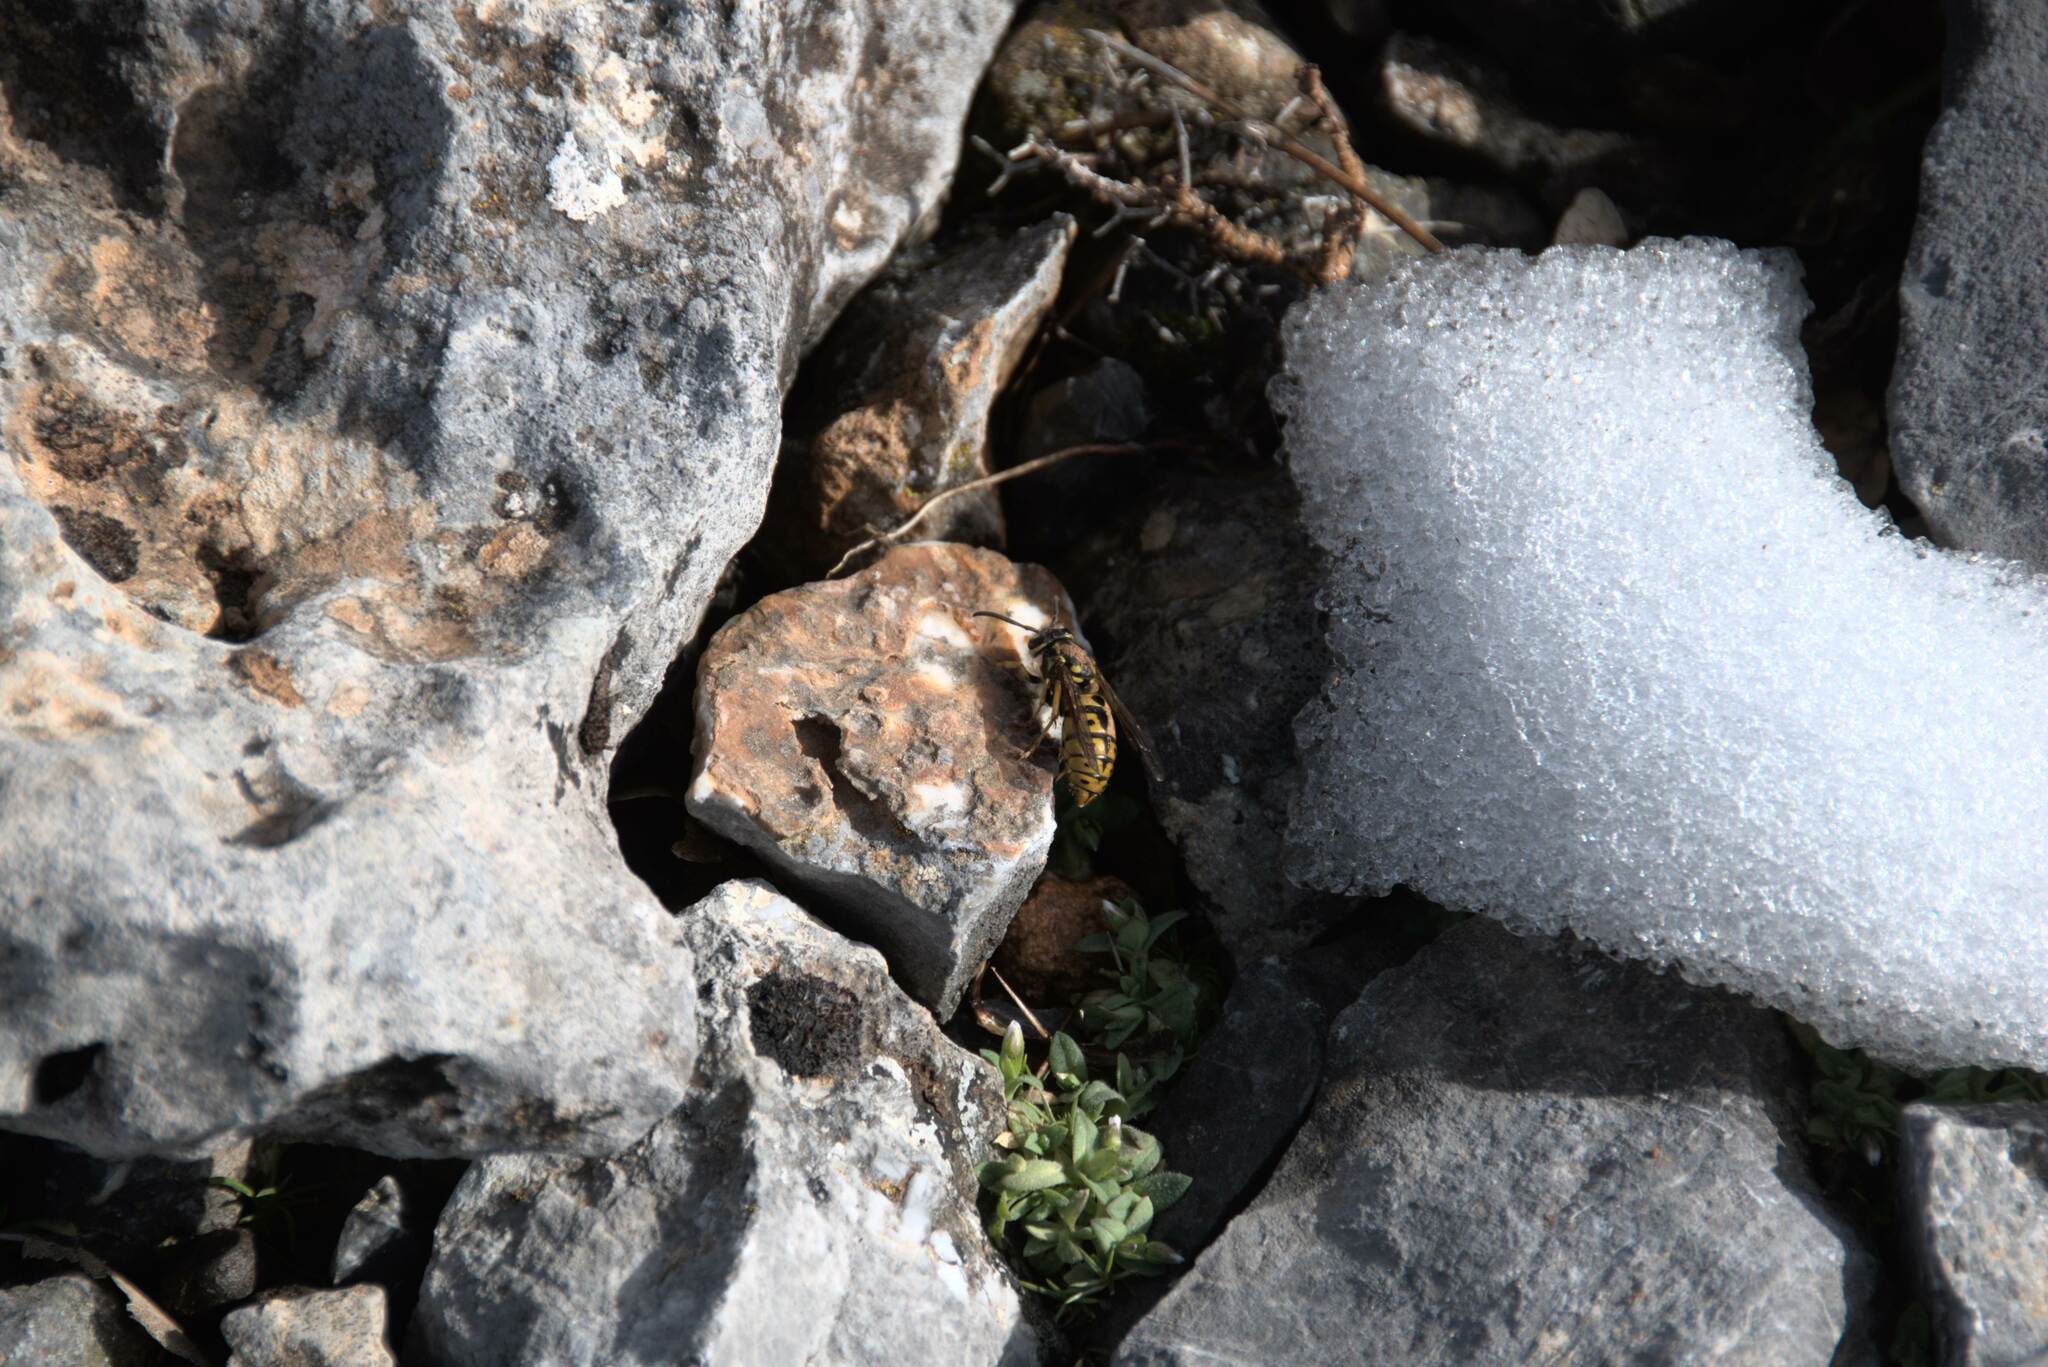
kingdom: Animalia
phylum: Arthropoda
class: Insecta
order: Hymenoptera
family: Vespidae
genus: Vespula
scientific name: Vespula germanica
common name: German wasp
